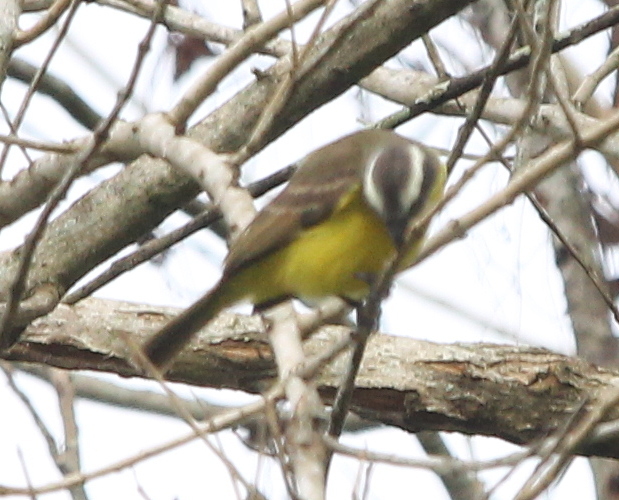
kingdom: Animalia
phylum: Chordata
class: Aves
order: Passeriformes
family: Tyrannidae
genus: Myiozetetes
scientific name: Myiozetetes similis
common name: Social flycatcher
